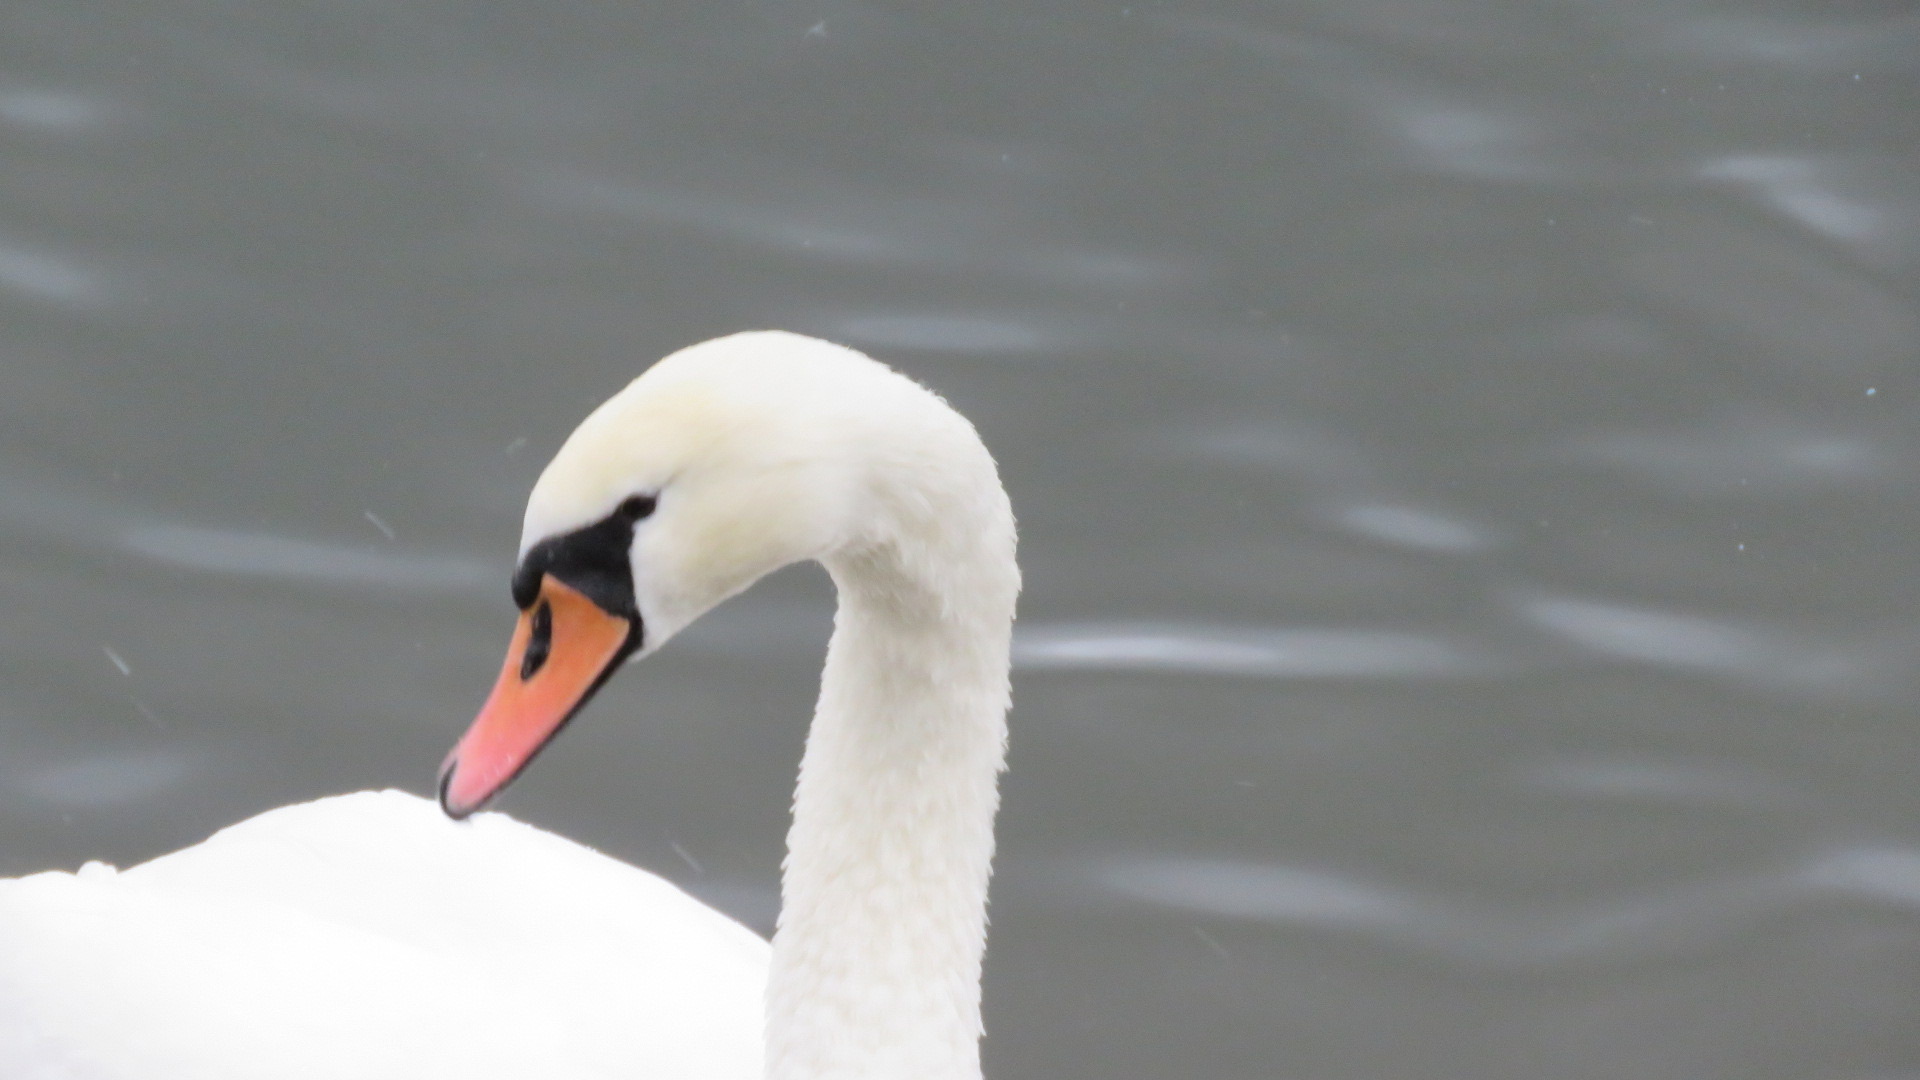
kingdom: Animalia
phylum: Chordata
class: Aves
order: Anseriformes
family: Anatidae
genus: Cygnus
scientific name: Cygnus olor
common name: Mute swan
